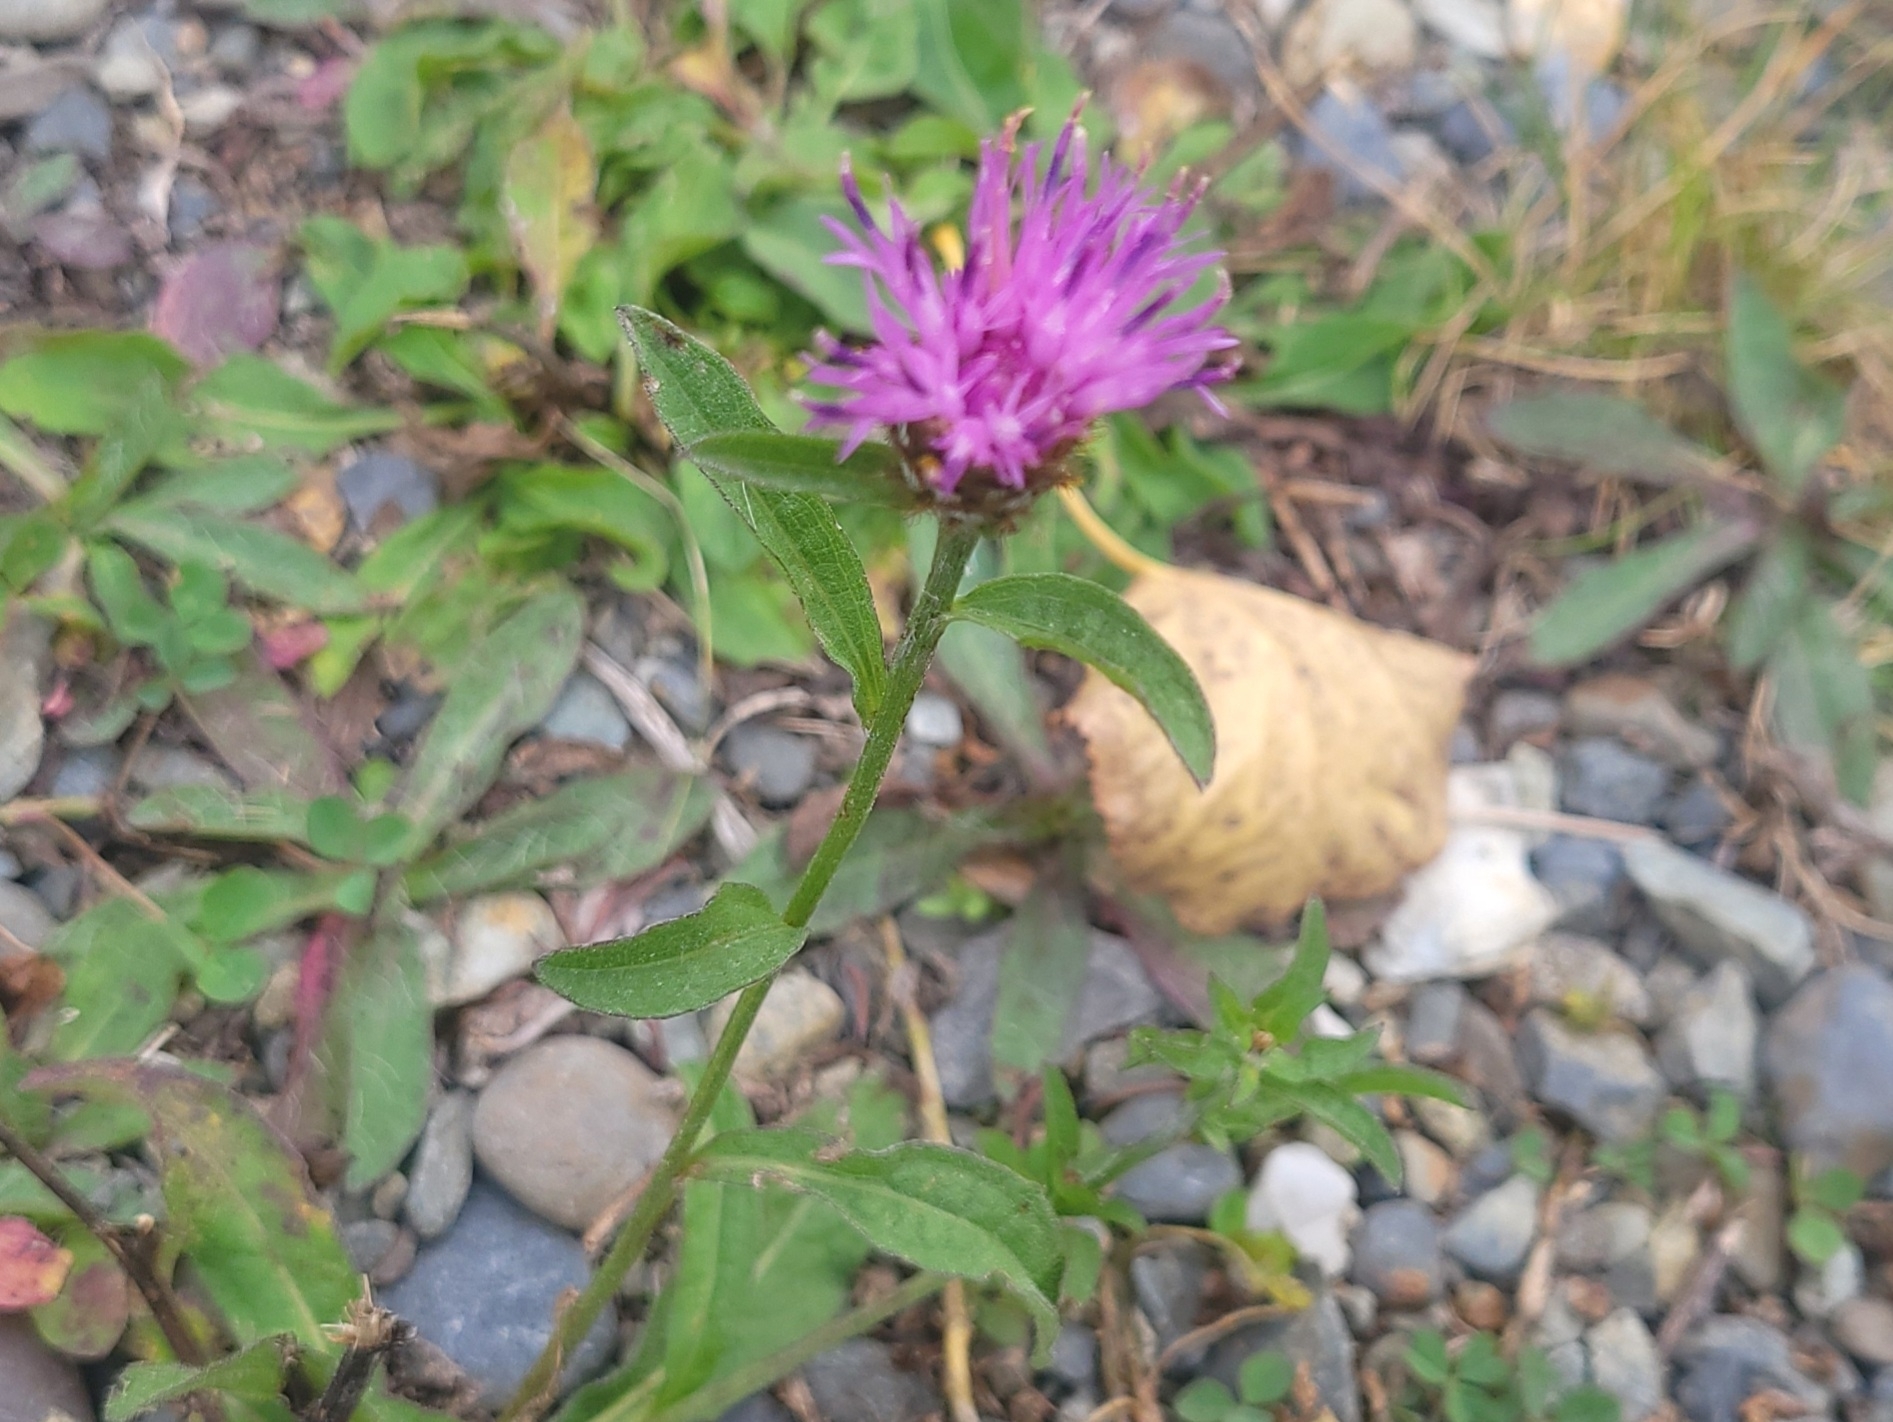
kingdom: Plantae
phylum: Tracheophyta
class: Magnoliopsida
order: Asterales
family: Asteraceae
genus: Centaurea
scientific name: Centaurea nigra
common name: Lesser knapweed
